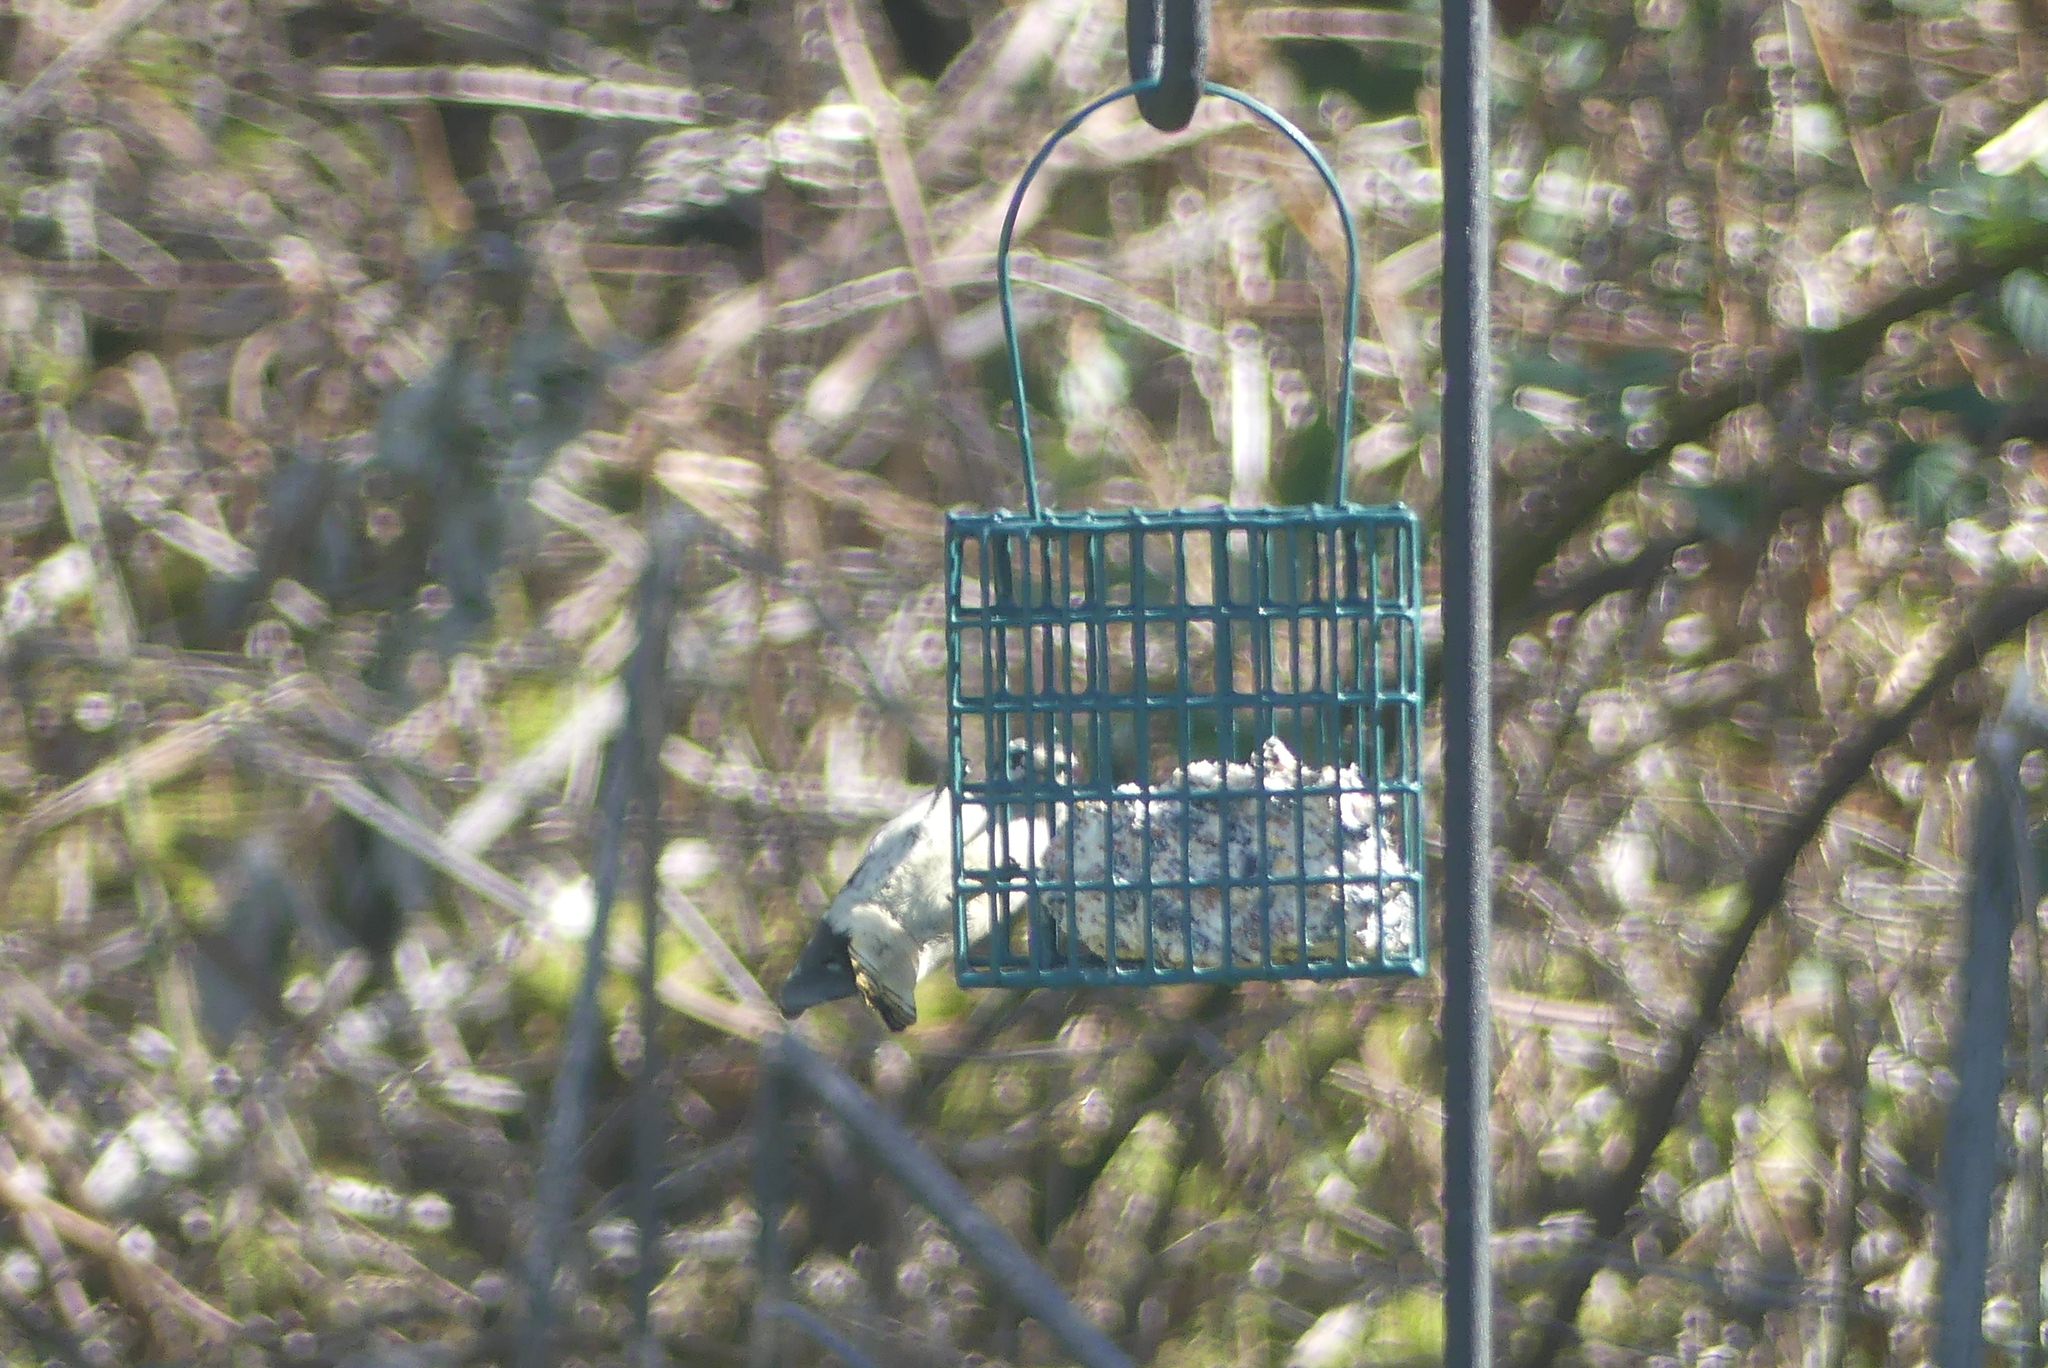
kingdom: Animalia
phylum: Chordata
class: Aves
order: Piciformes
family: Picidae
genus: Dryobates
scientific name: Dryobates pubescens
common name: Downy woodpecker
